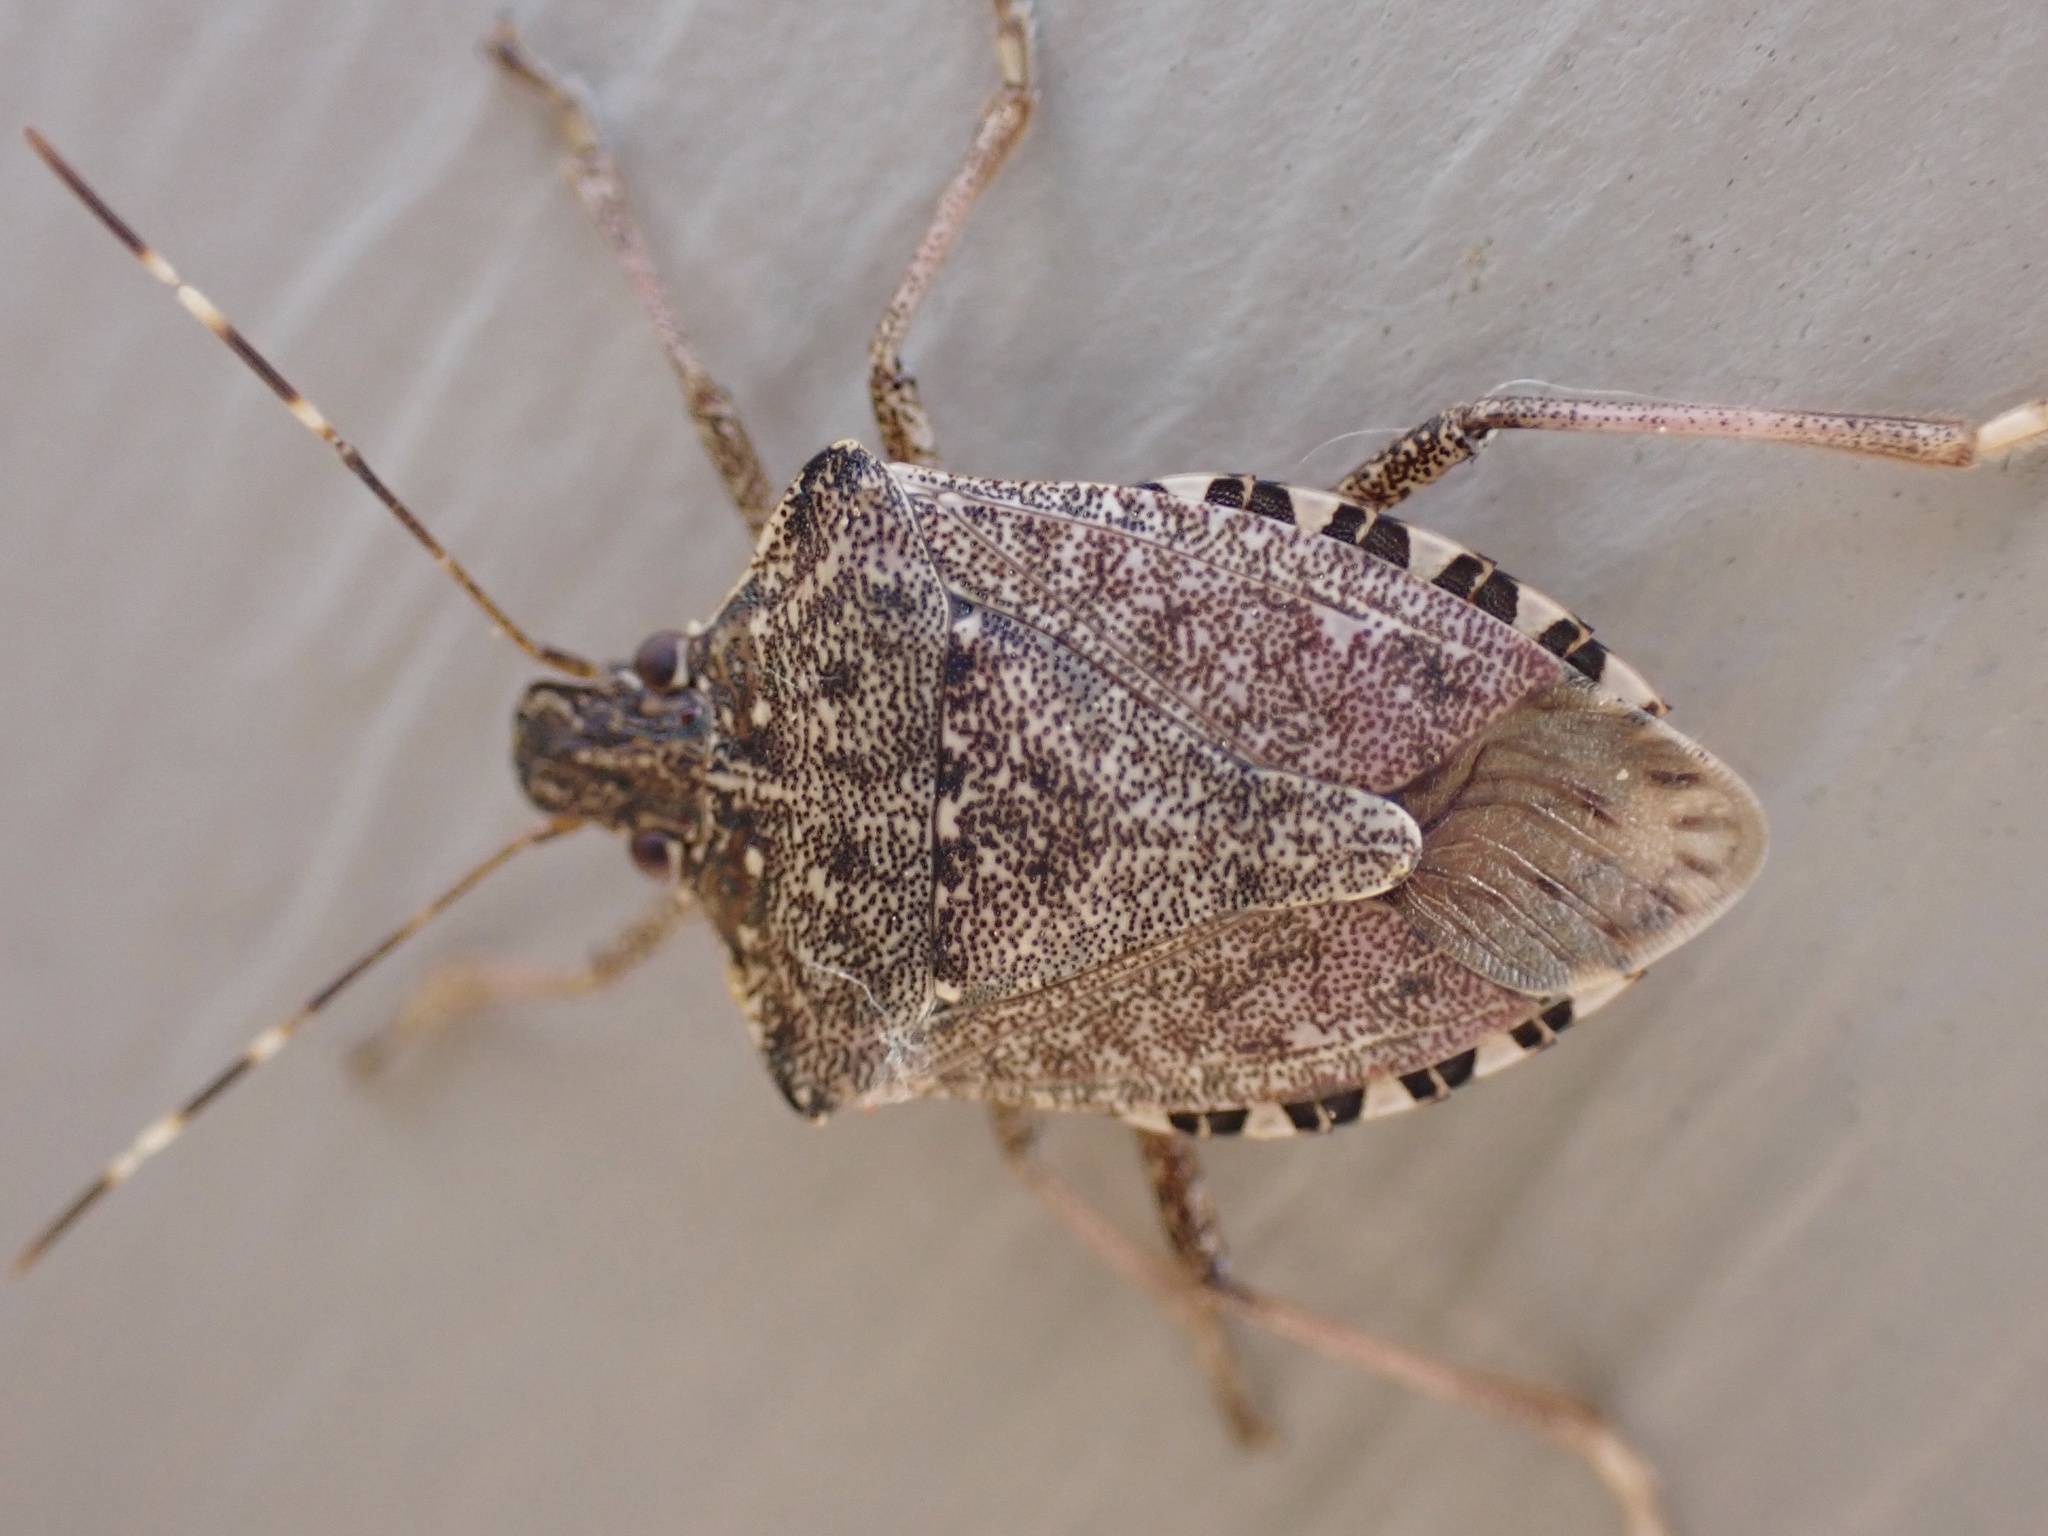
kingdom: Animalia
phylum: Arthropoda
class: Insecta
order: Hemiptera
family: Pentatomidae
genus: Halyomorpha
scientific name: Halyomorpha halys
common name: Brown marmorated stink bug
